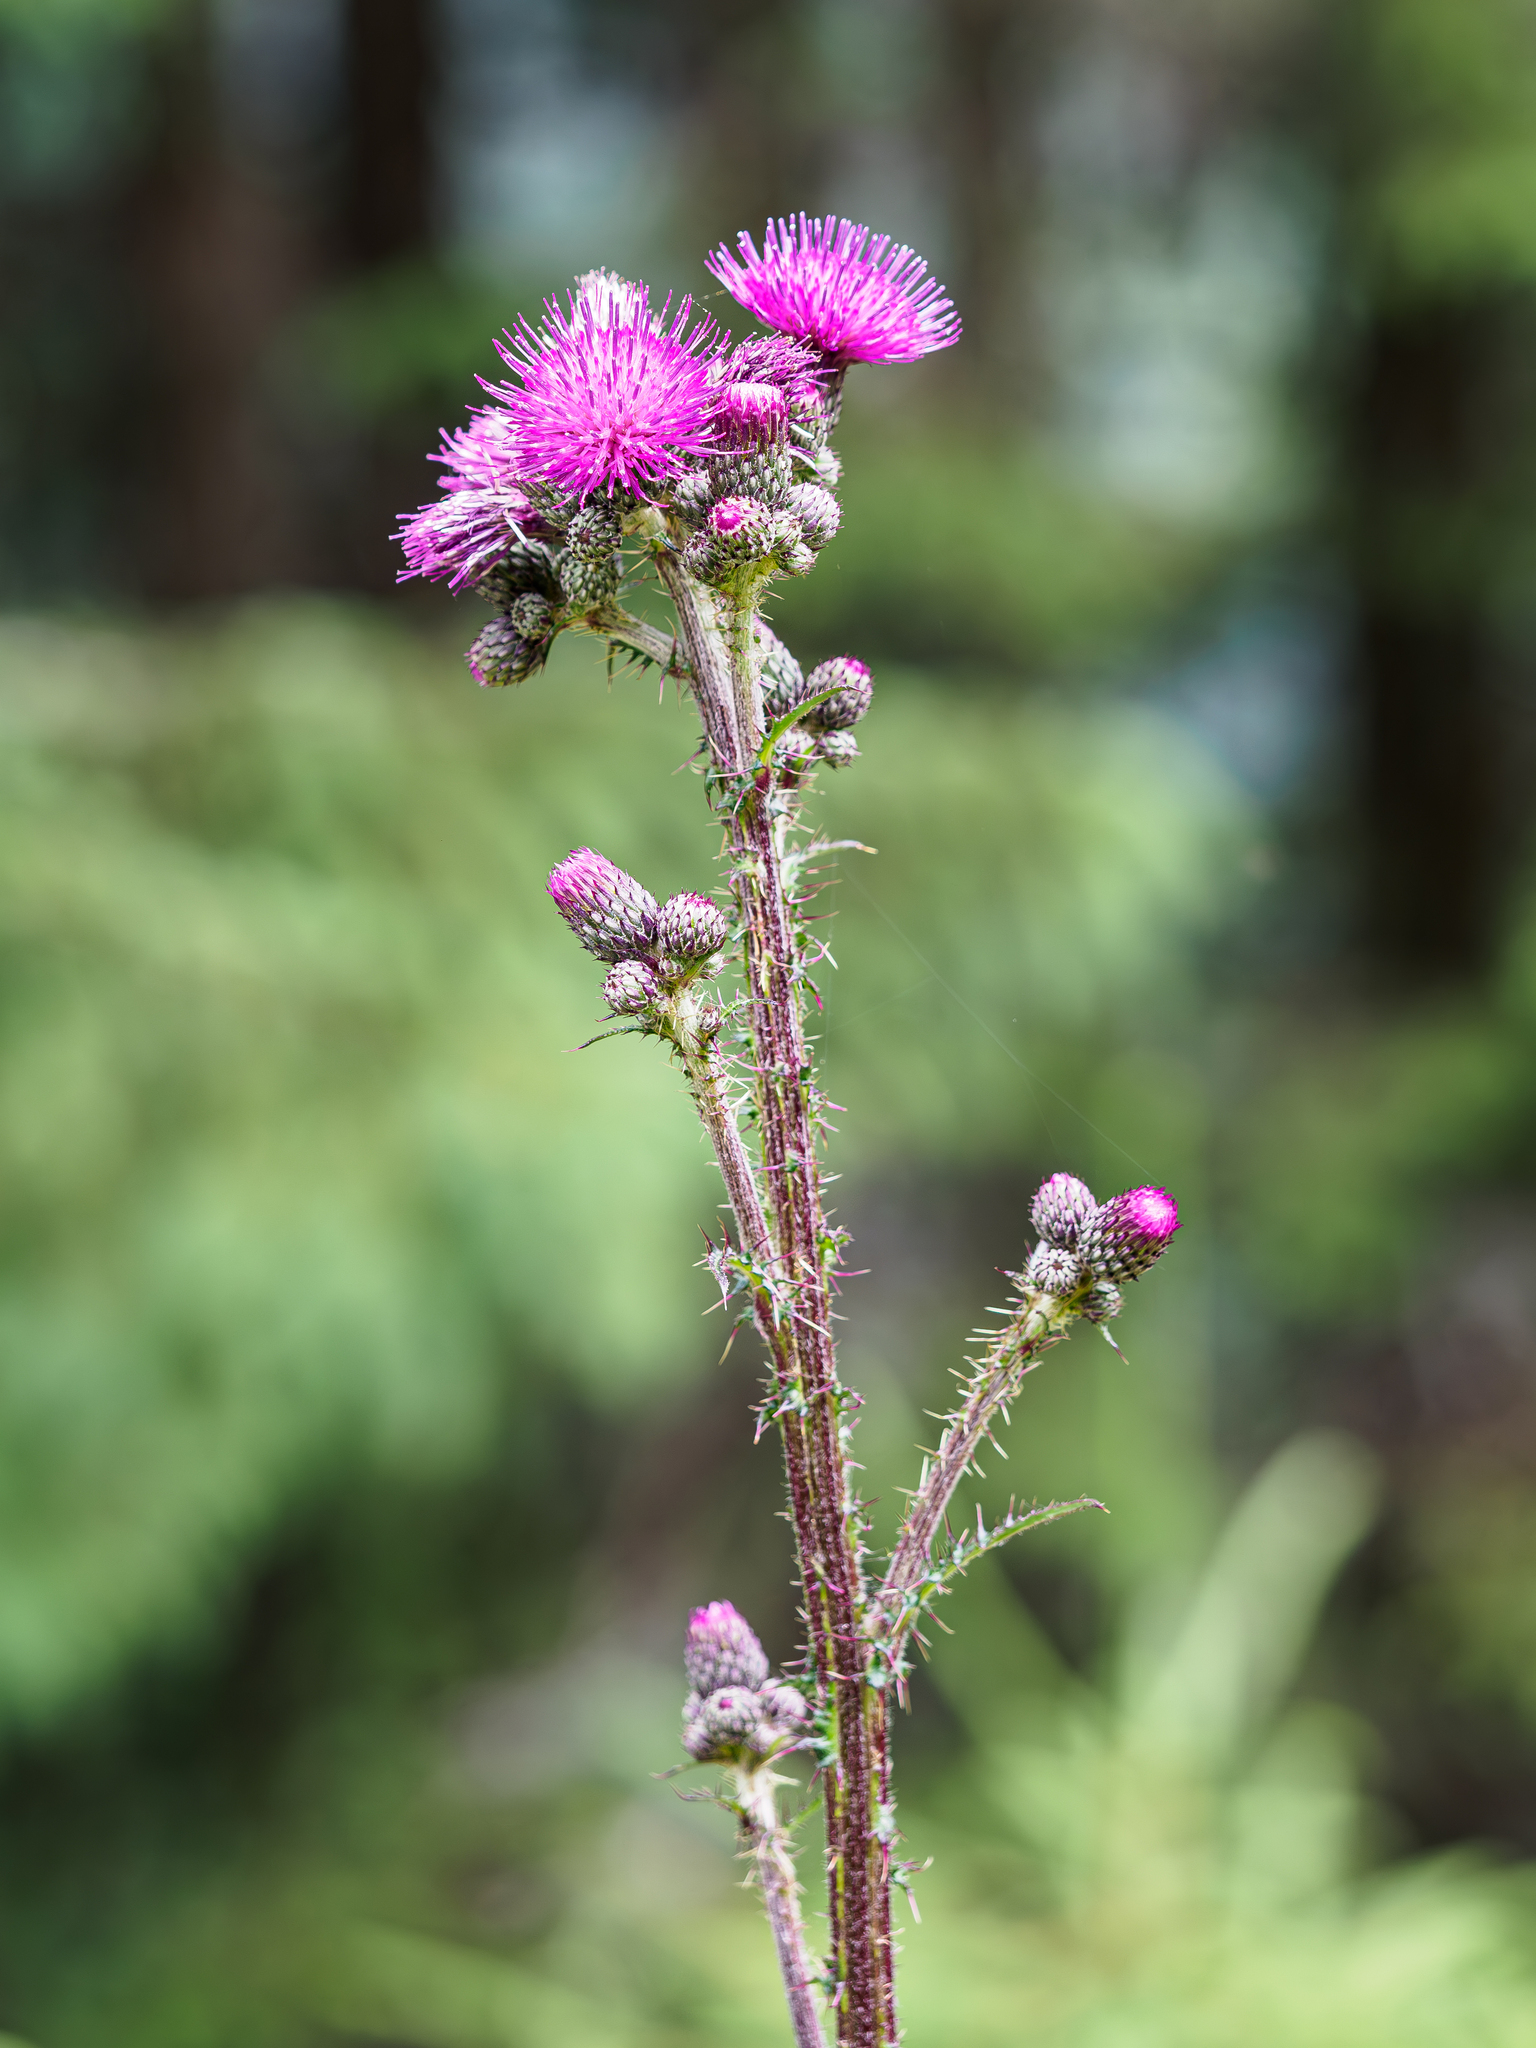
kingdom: Plantae
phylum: Tracheophyta
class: Magnoliopsida
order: Asterales
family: Asteraceae
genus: Cirsium
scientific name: Cirsium palustre
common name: Marsh thistle
